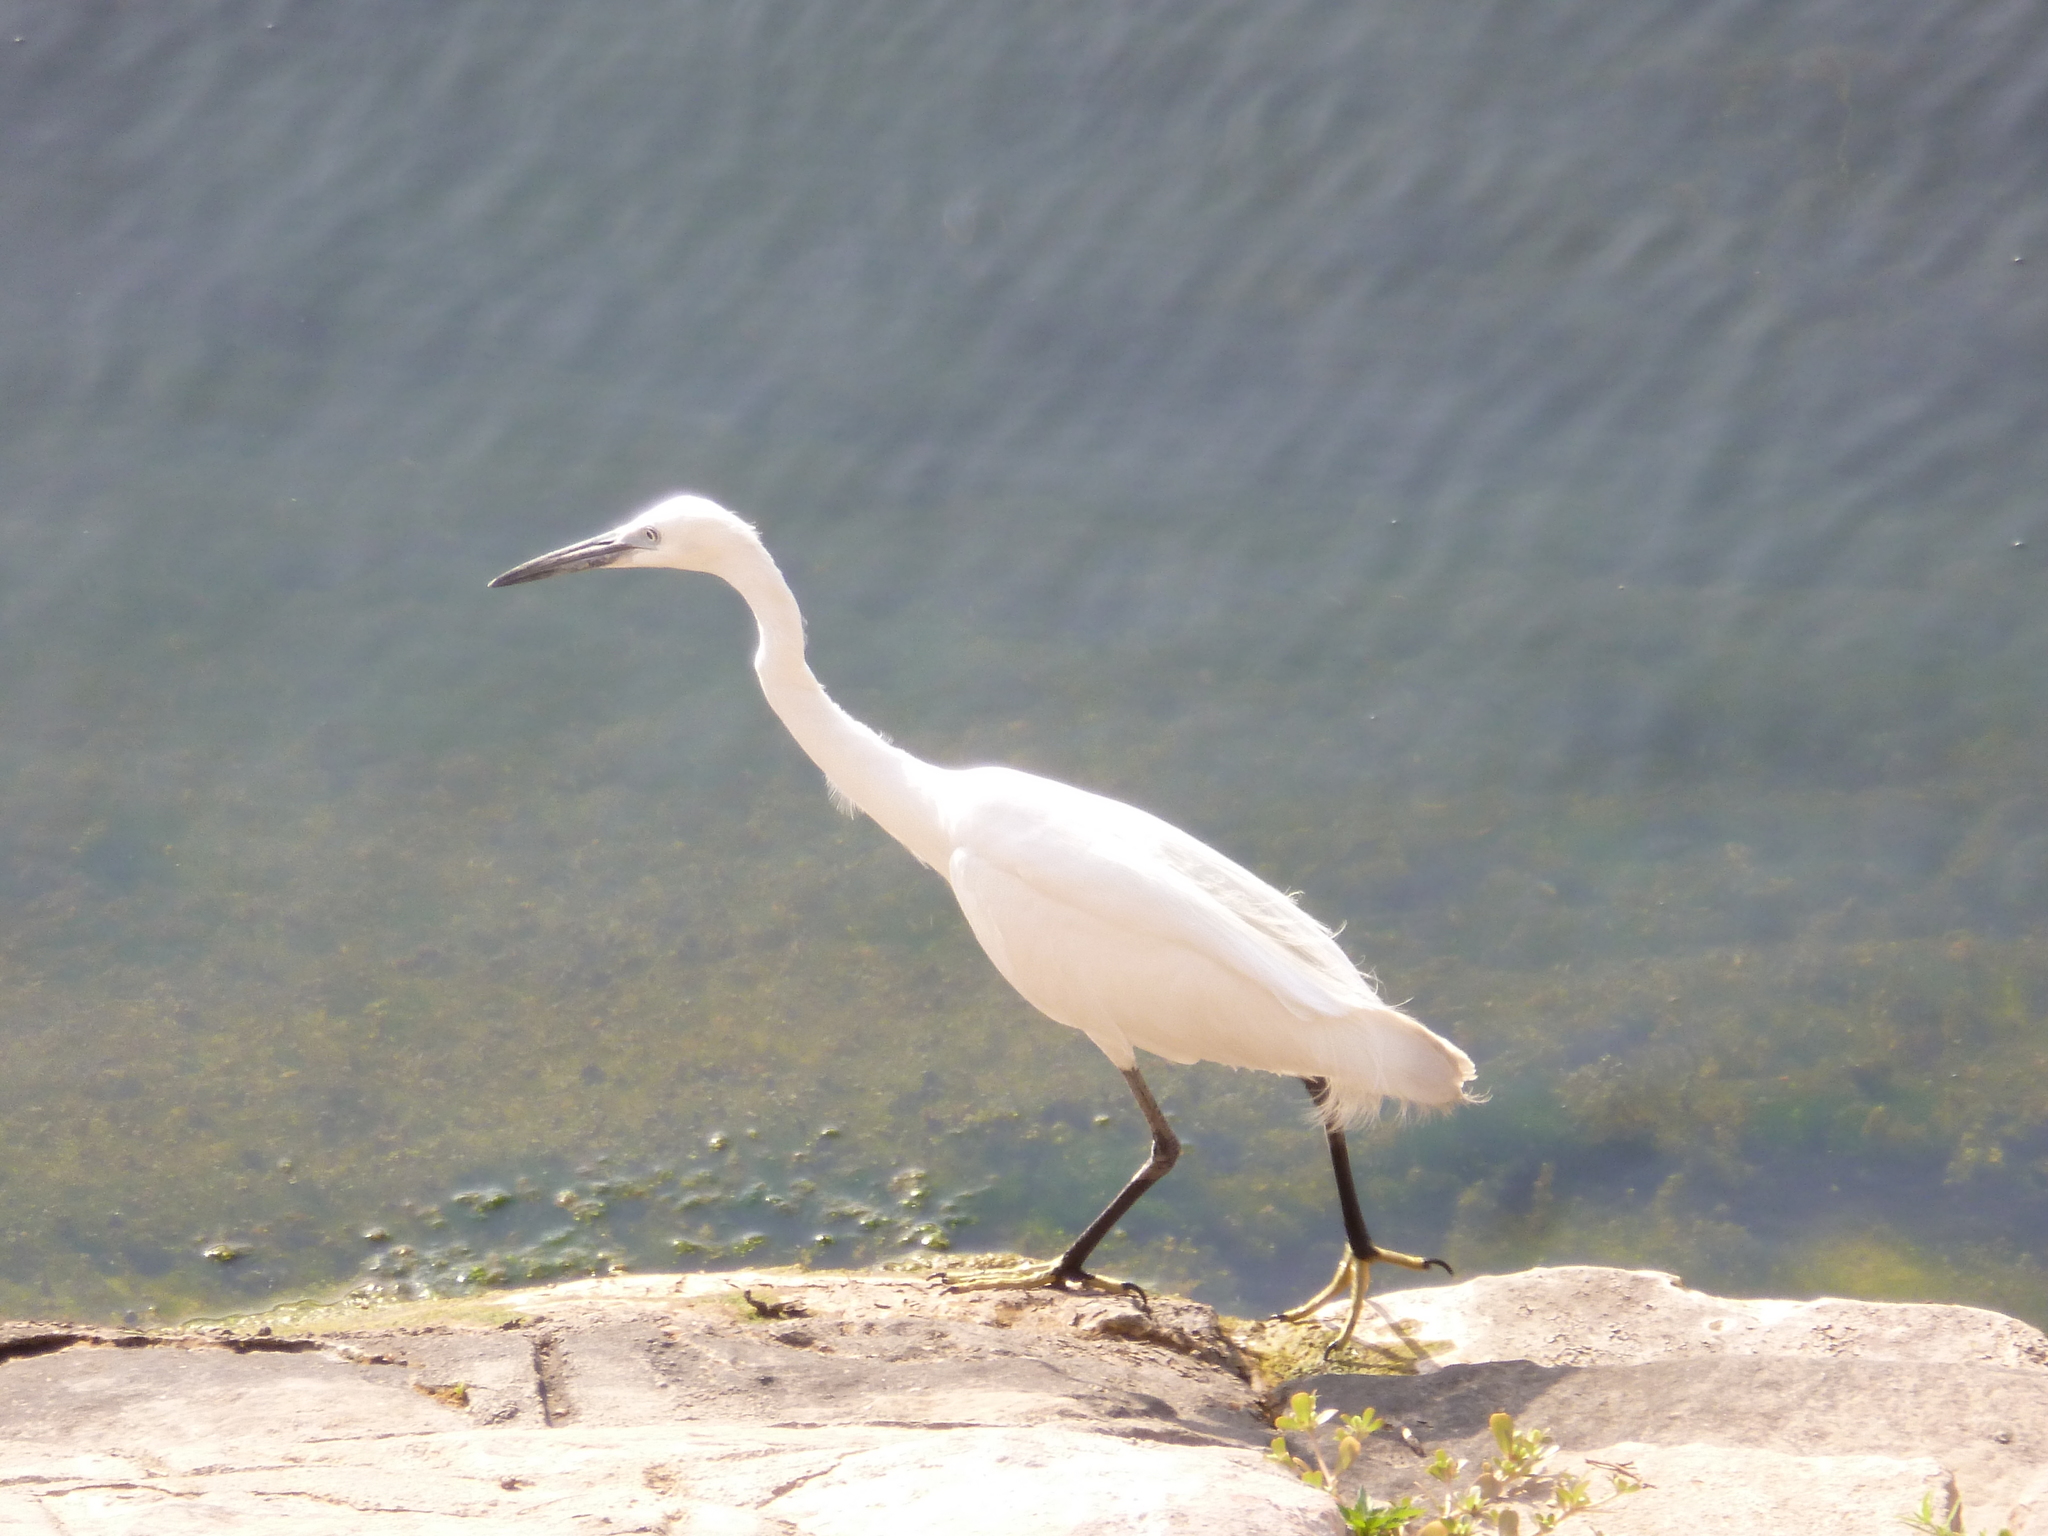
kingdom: Animalia
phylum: Chordata
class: Aves
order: Pelecaniformes
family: Ardeidae
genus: Egretta
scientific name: Egretta garzetta
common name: Little egret
